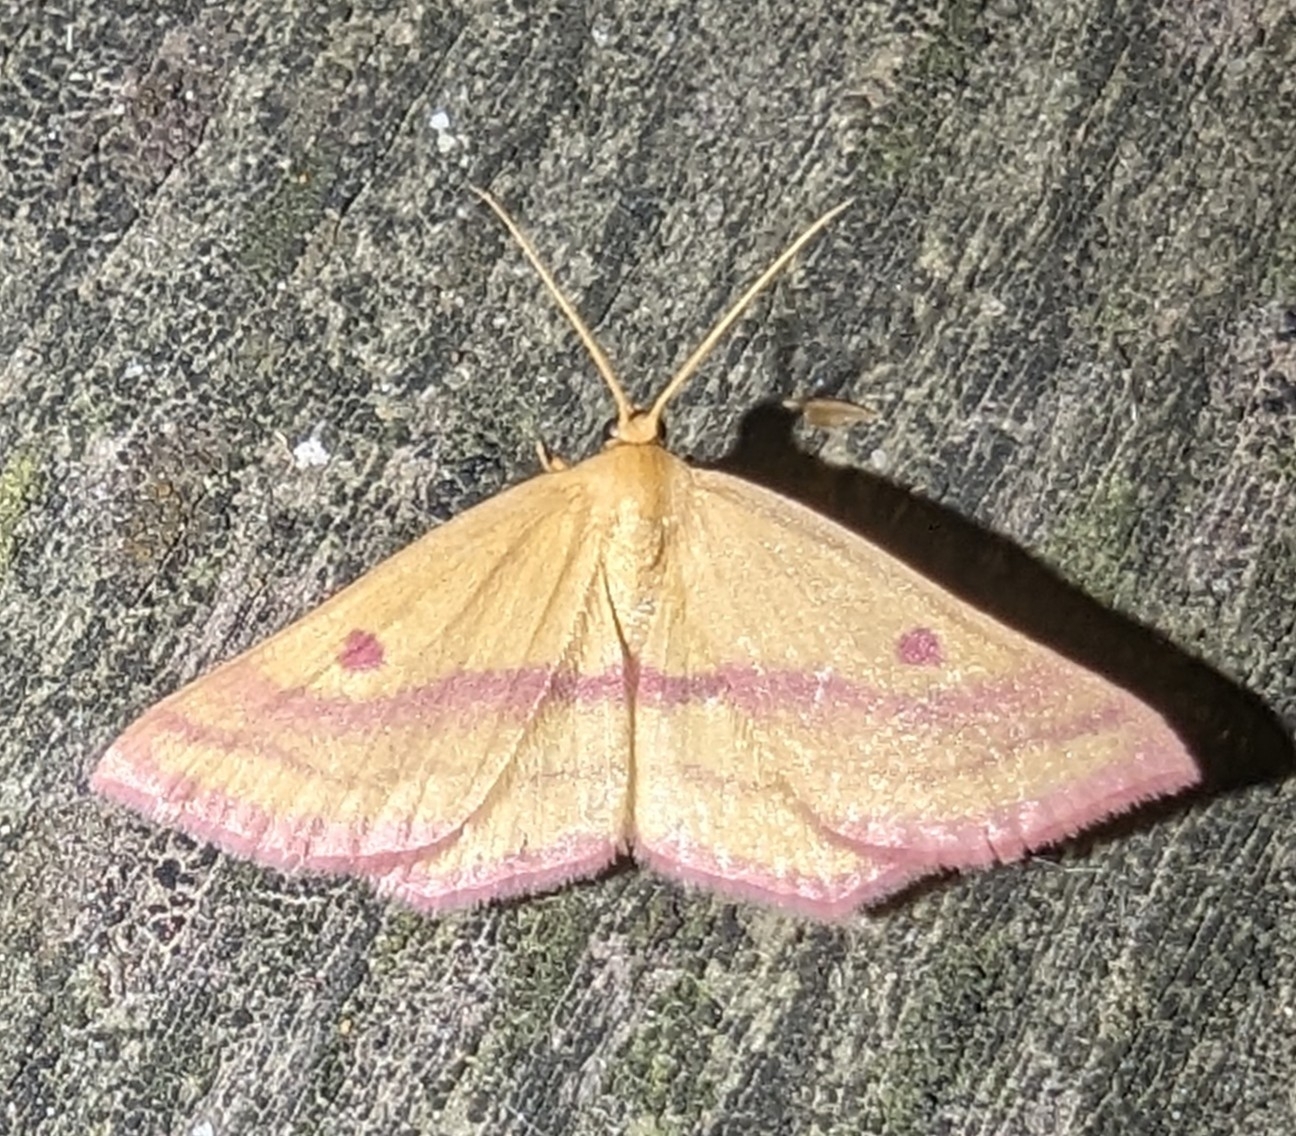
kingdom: Animalia
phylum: Arthropoda
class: Insecta
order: Lepidoptera
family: Geometridae
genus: Haematopis
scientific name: Haematopis grataria
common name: Chickweed geometer
